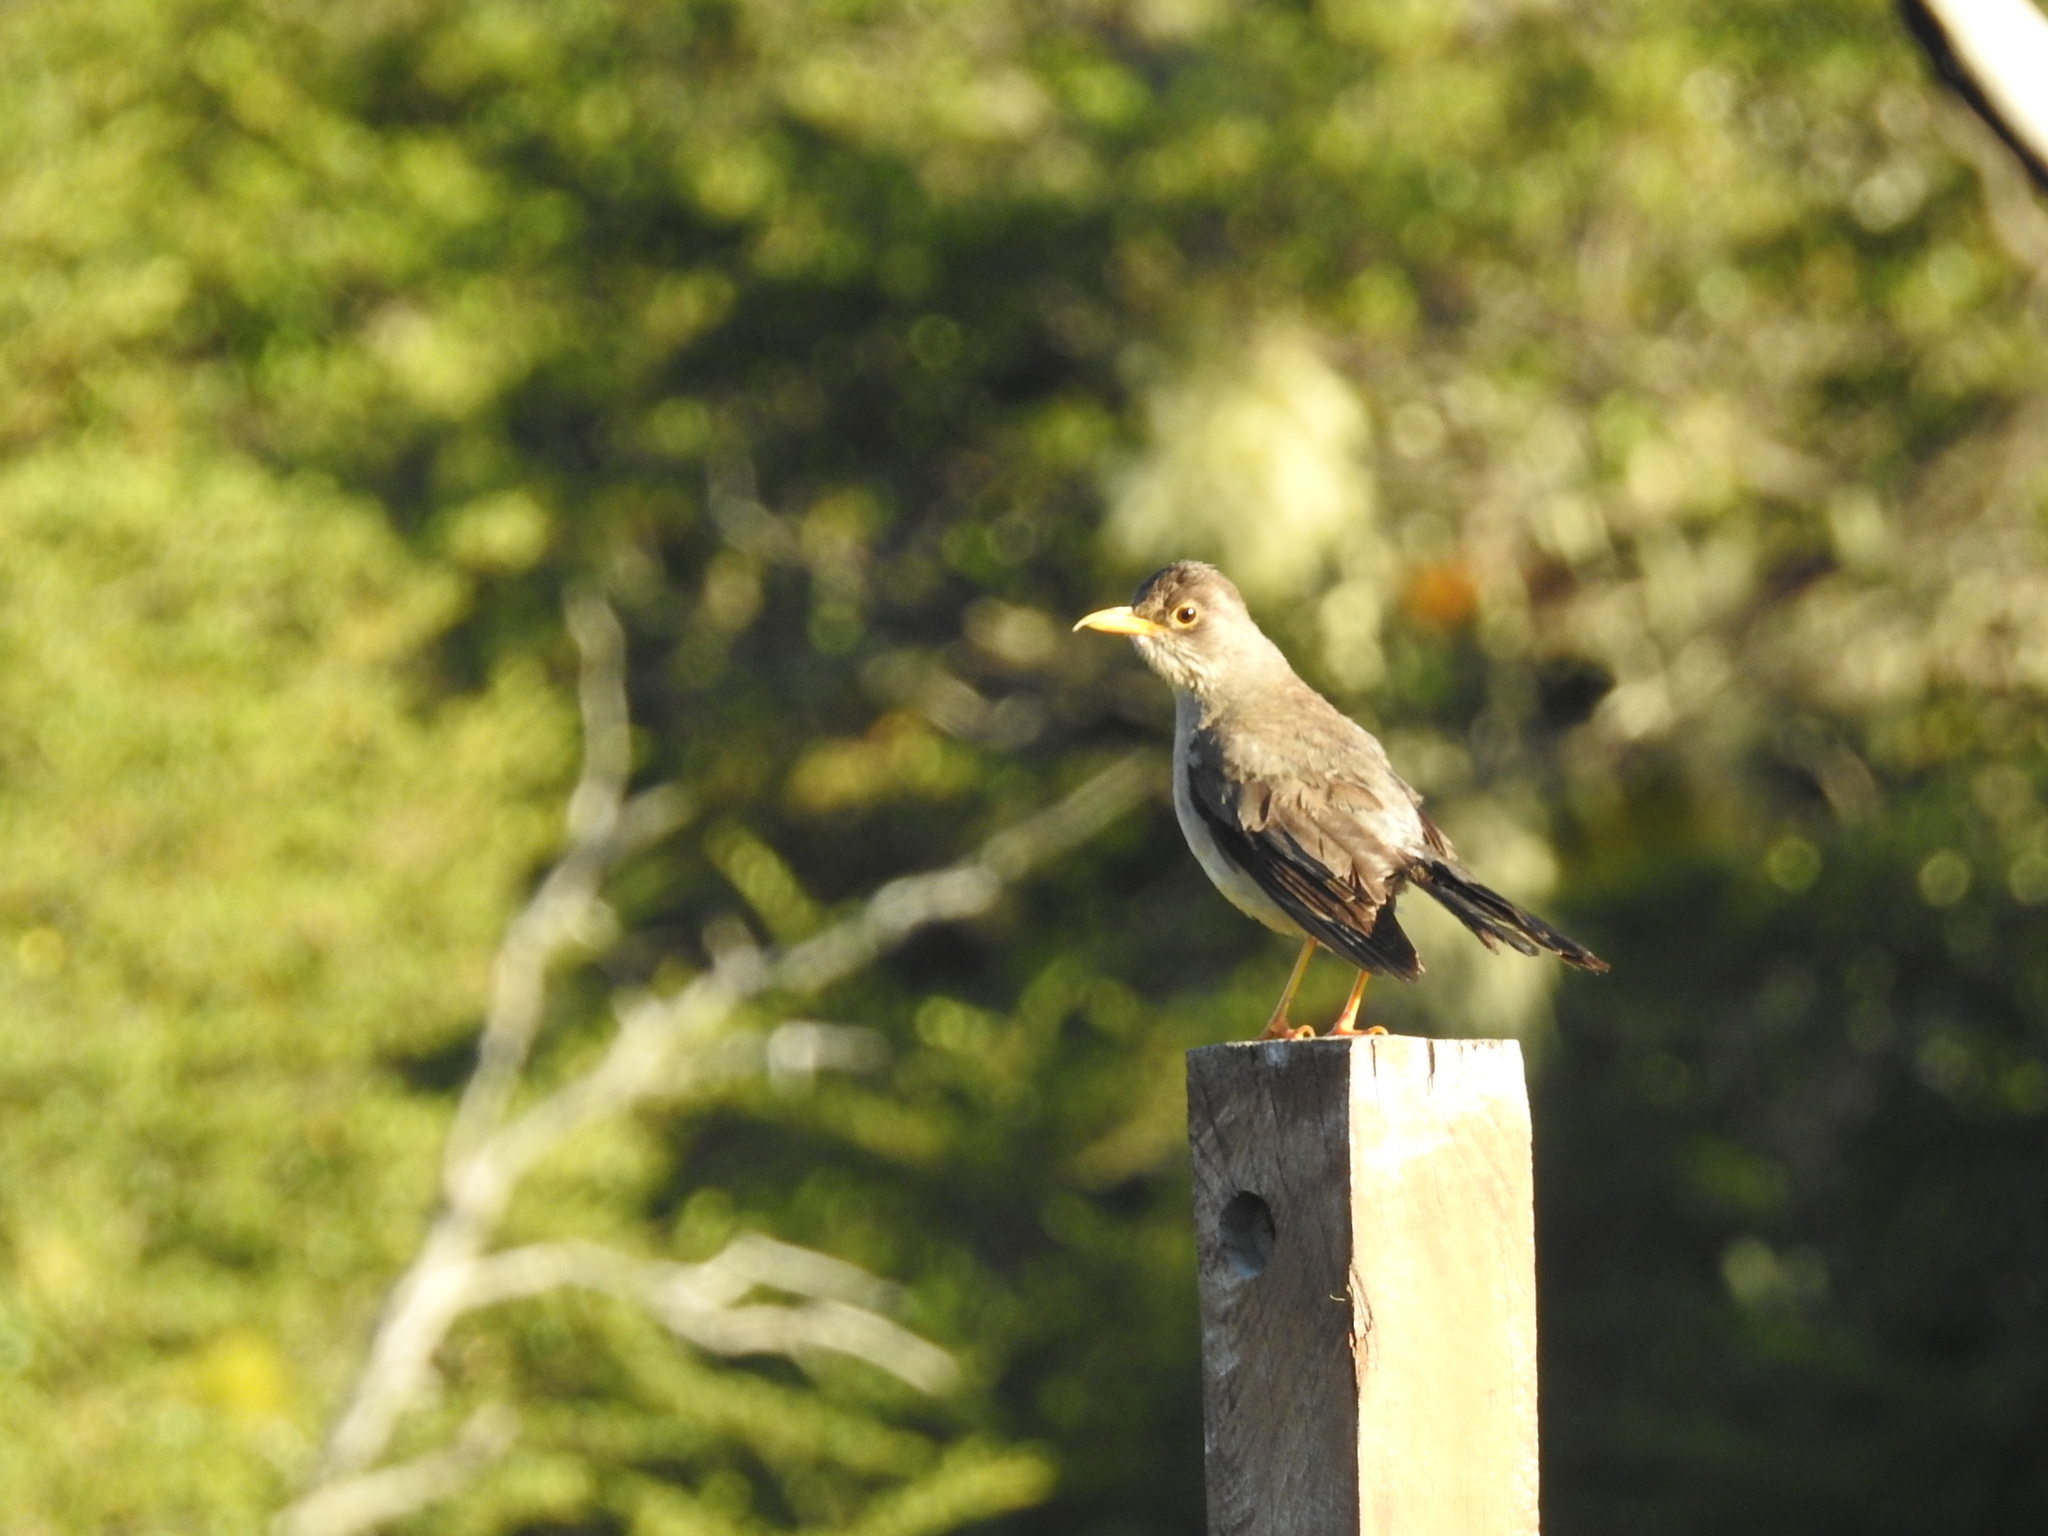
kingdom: Animalia
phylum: Chordata
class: Aves
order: Passeriformes
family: Turdidae
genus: Turdus
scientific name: Turdus falcklandii
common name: Austral thrush
